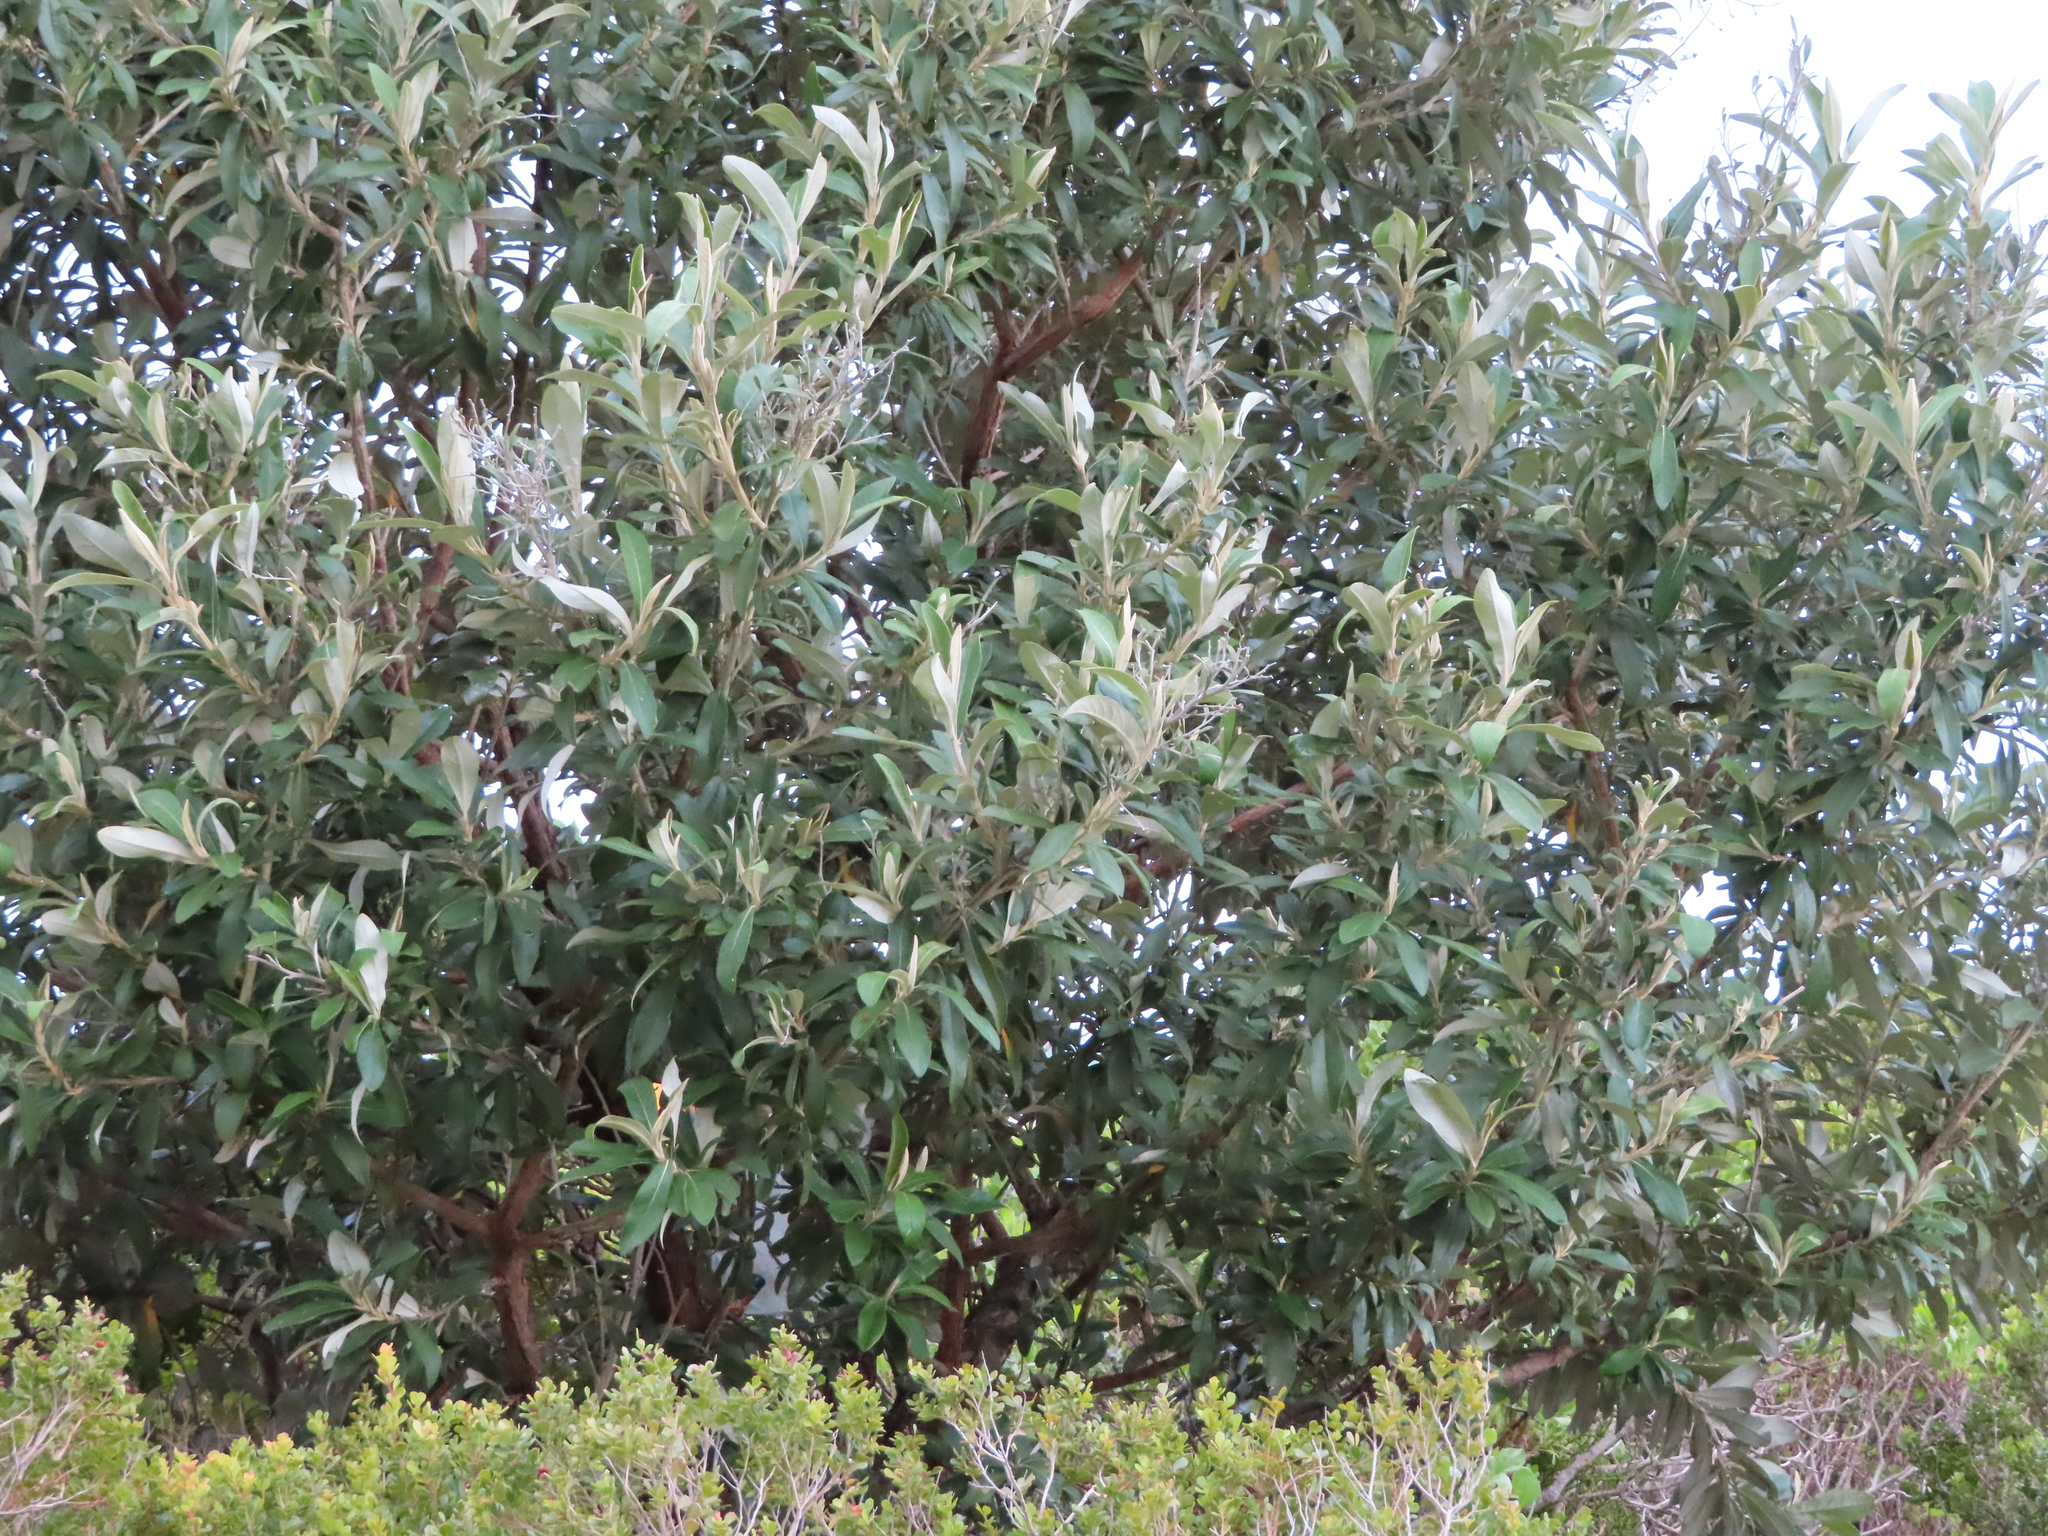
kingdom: Plantae
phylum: Tracheophyta
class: Magnoliopsida
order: Asterales
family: Asteraceae
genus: Tarchonanthus
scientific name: Tarchonanthus littoralis
